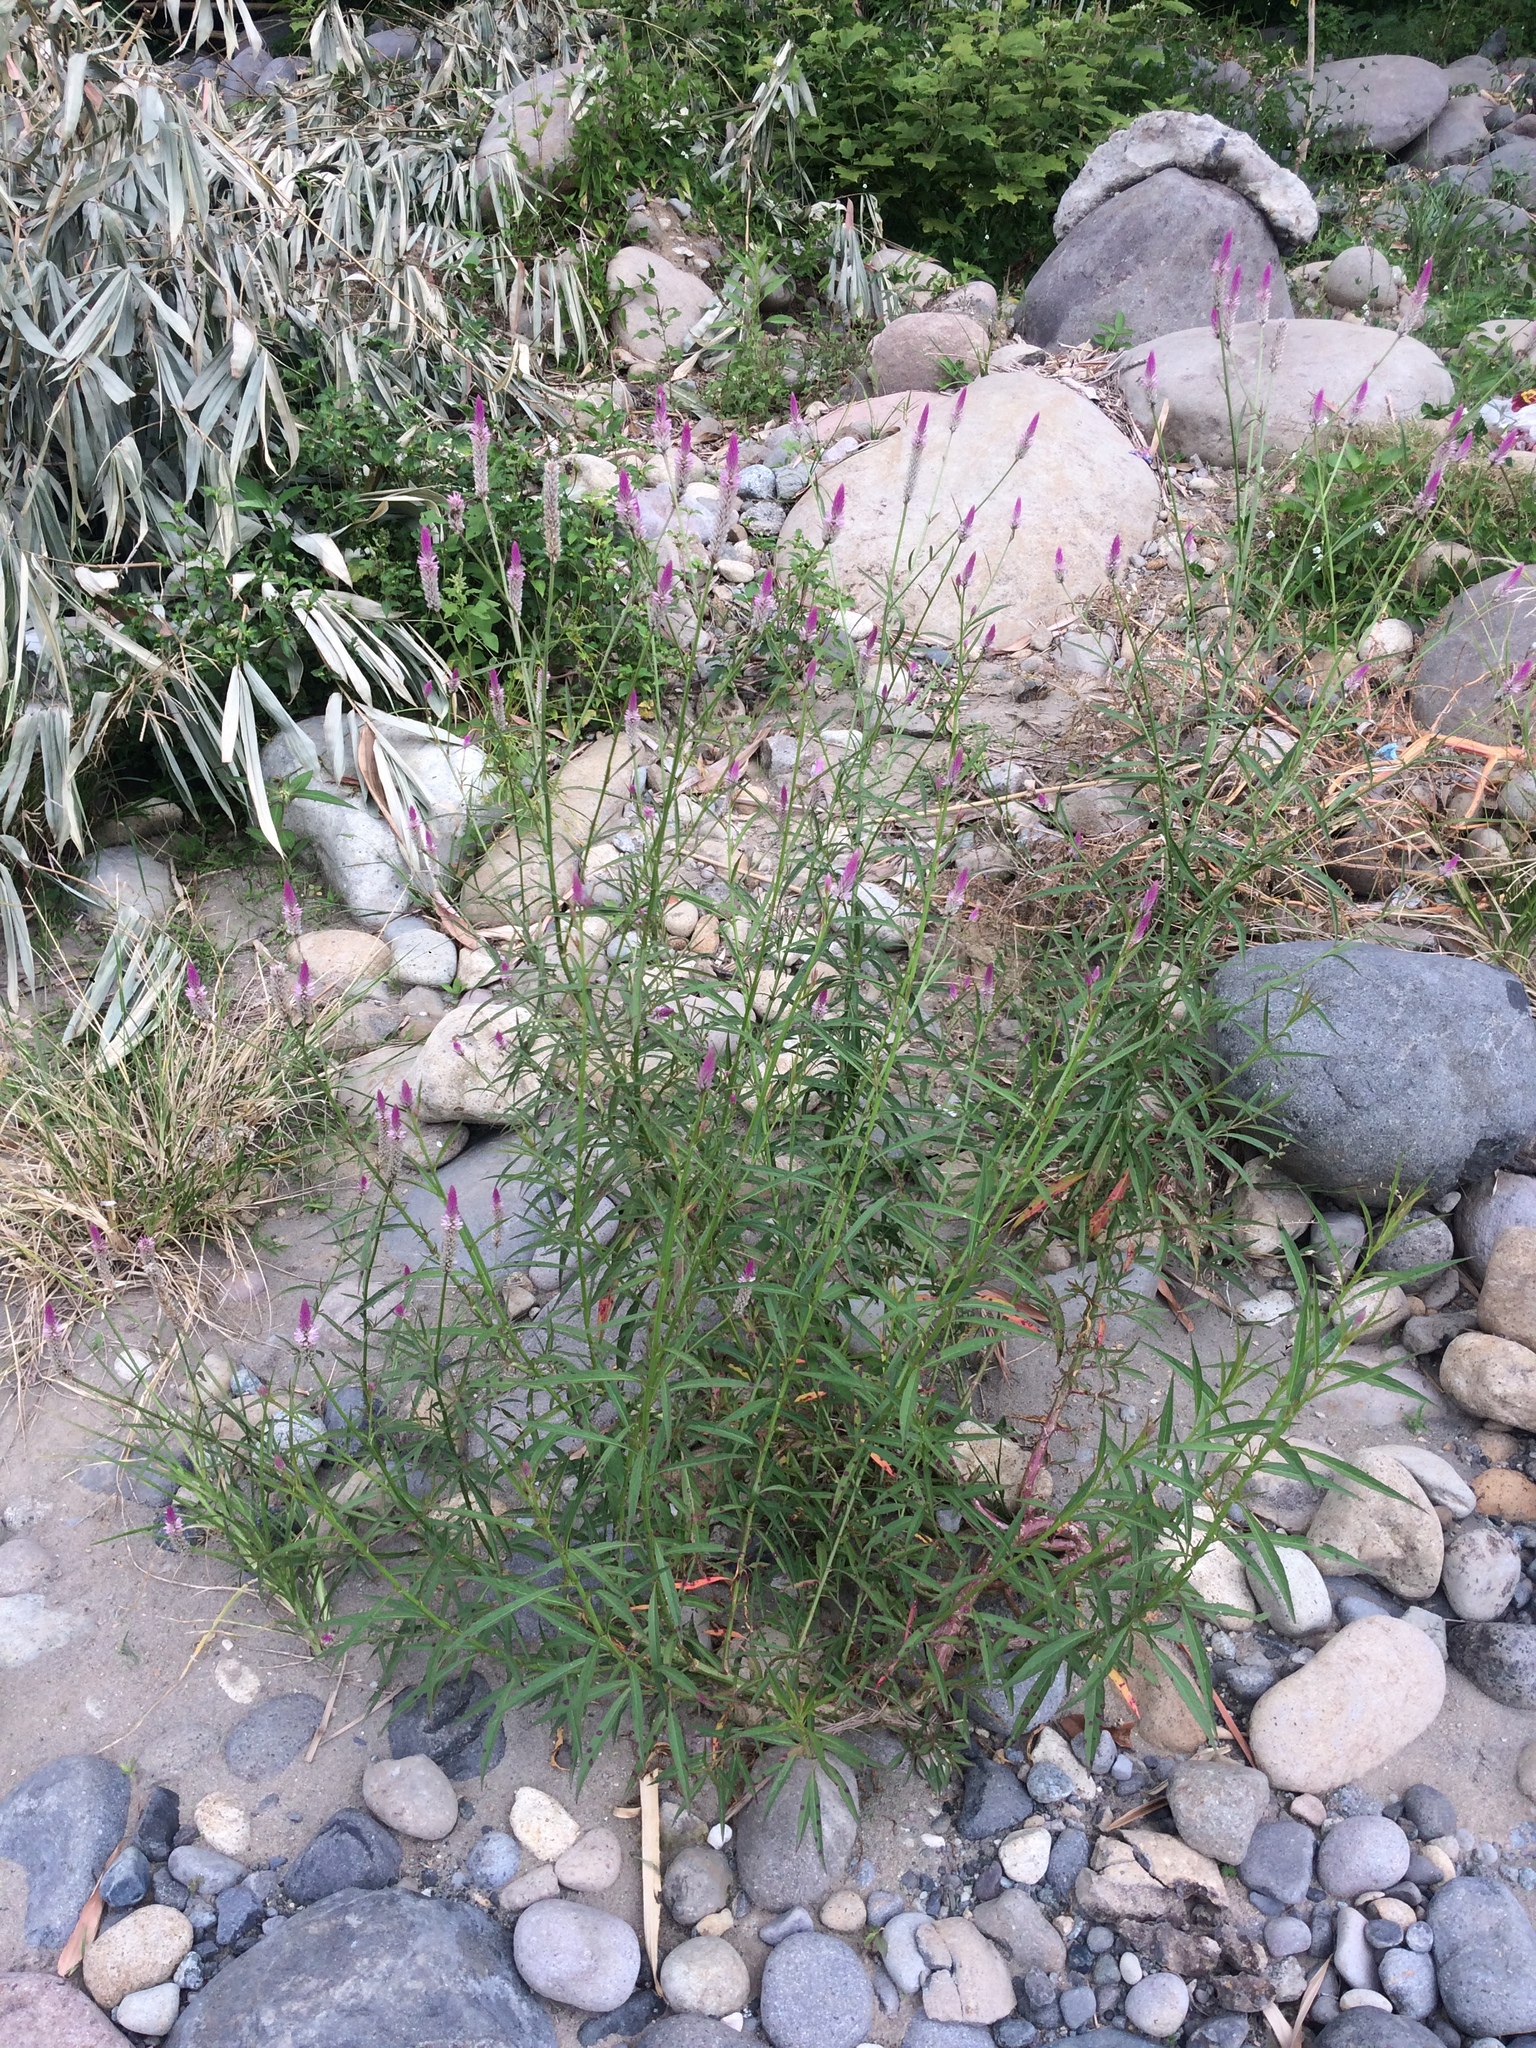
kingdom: Plantae
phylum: Tracheophyta
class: Magnoliopsida
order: Caryophyllales
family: Amaranthaceae
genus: Celosia
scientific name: Celosia spicata
